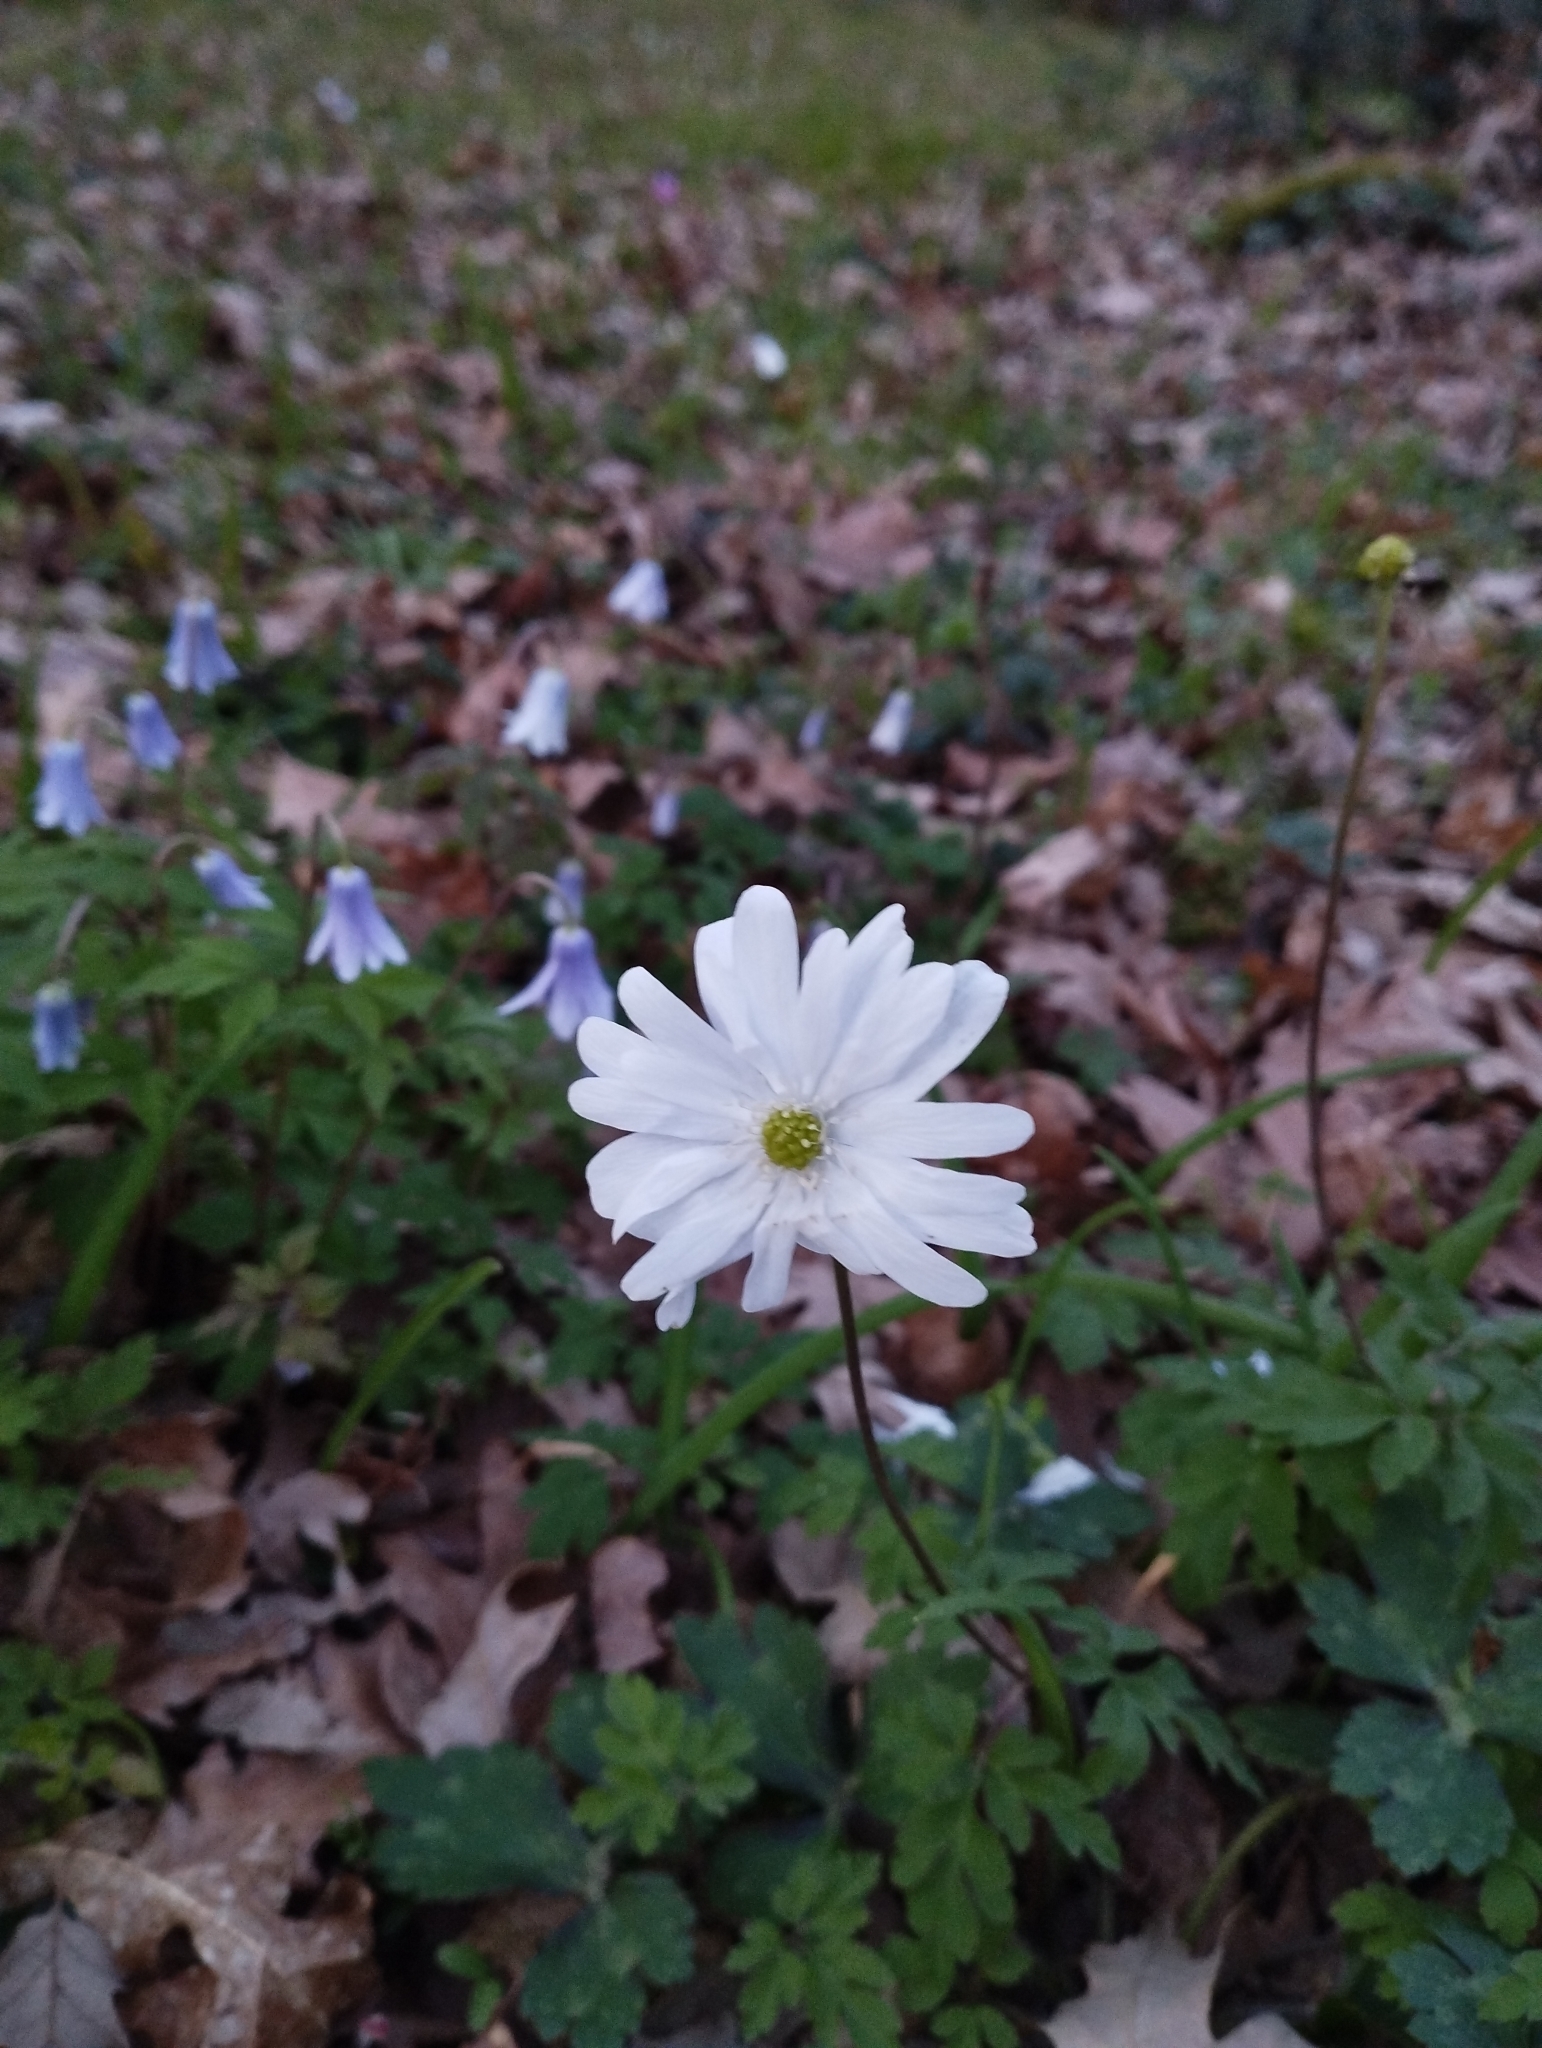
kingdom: Plantae
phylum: Tracheophyta
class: Magnoliopsida
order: Ranunculales
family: Ranunculaceae
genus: Anemone
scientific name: Anemone apennina
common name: Blue anemone
